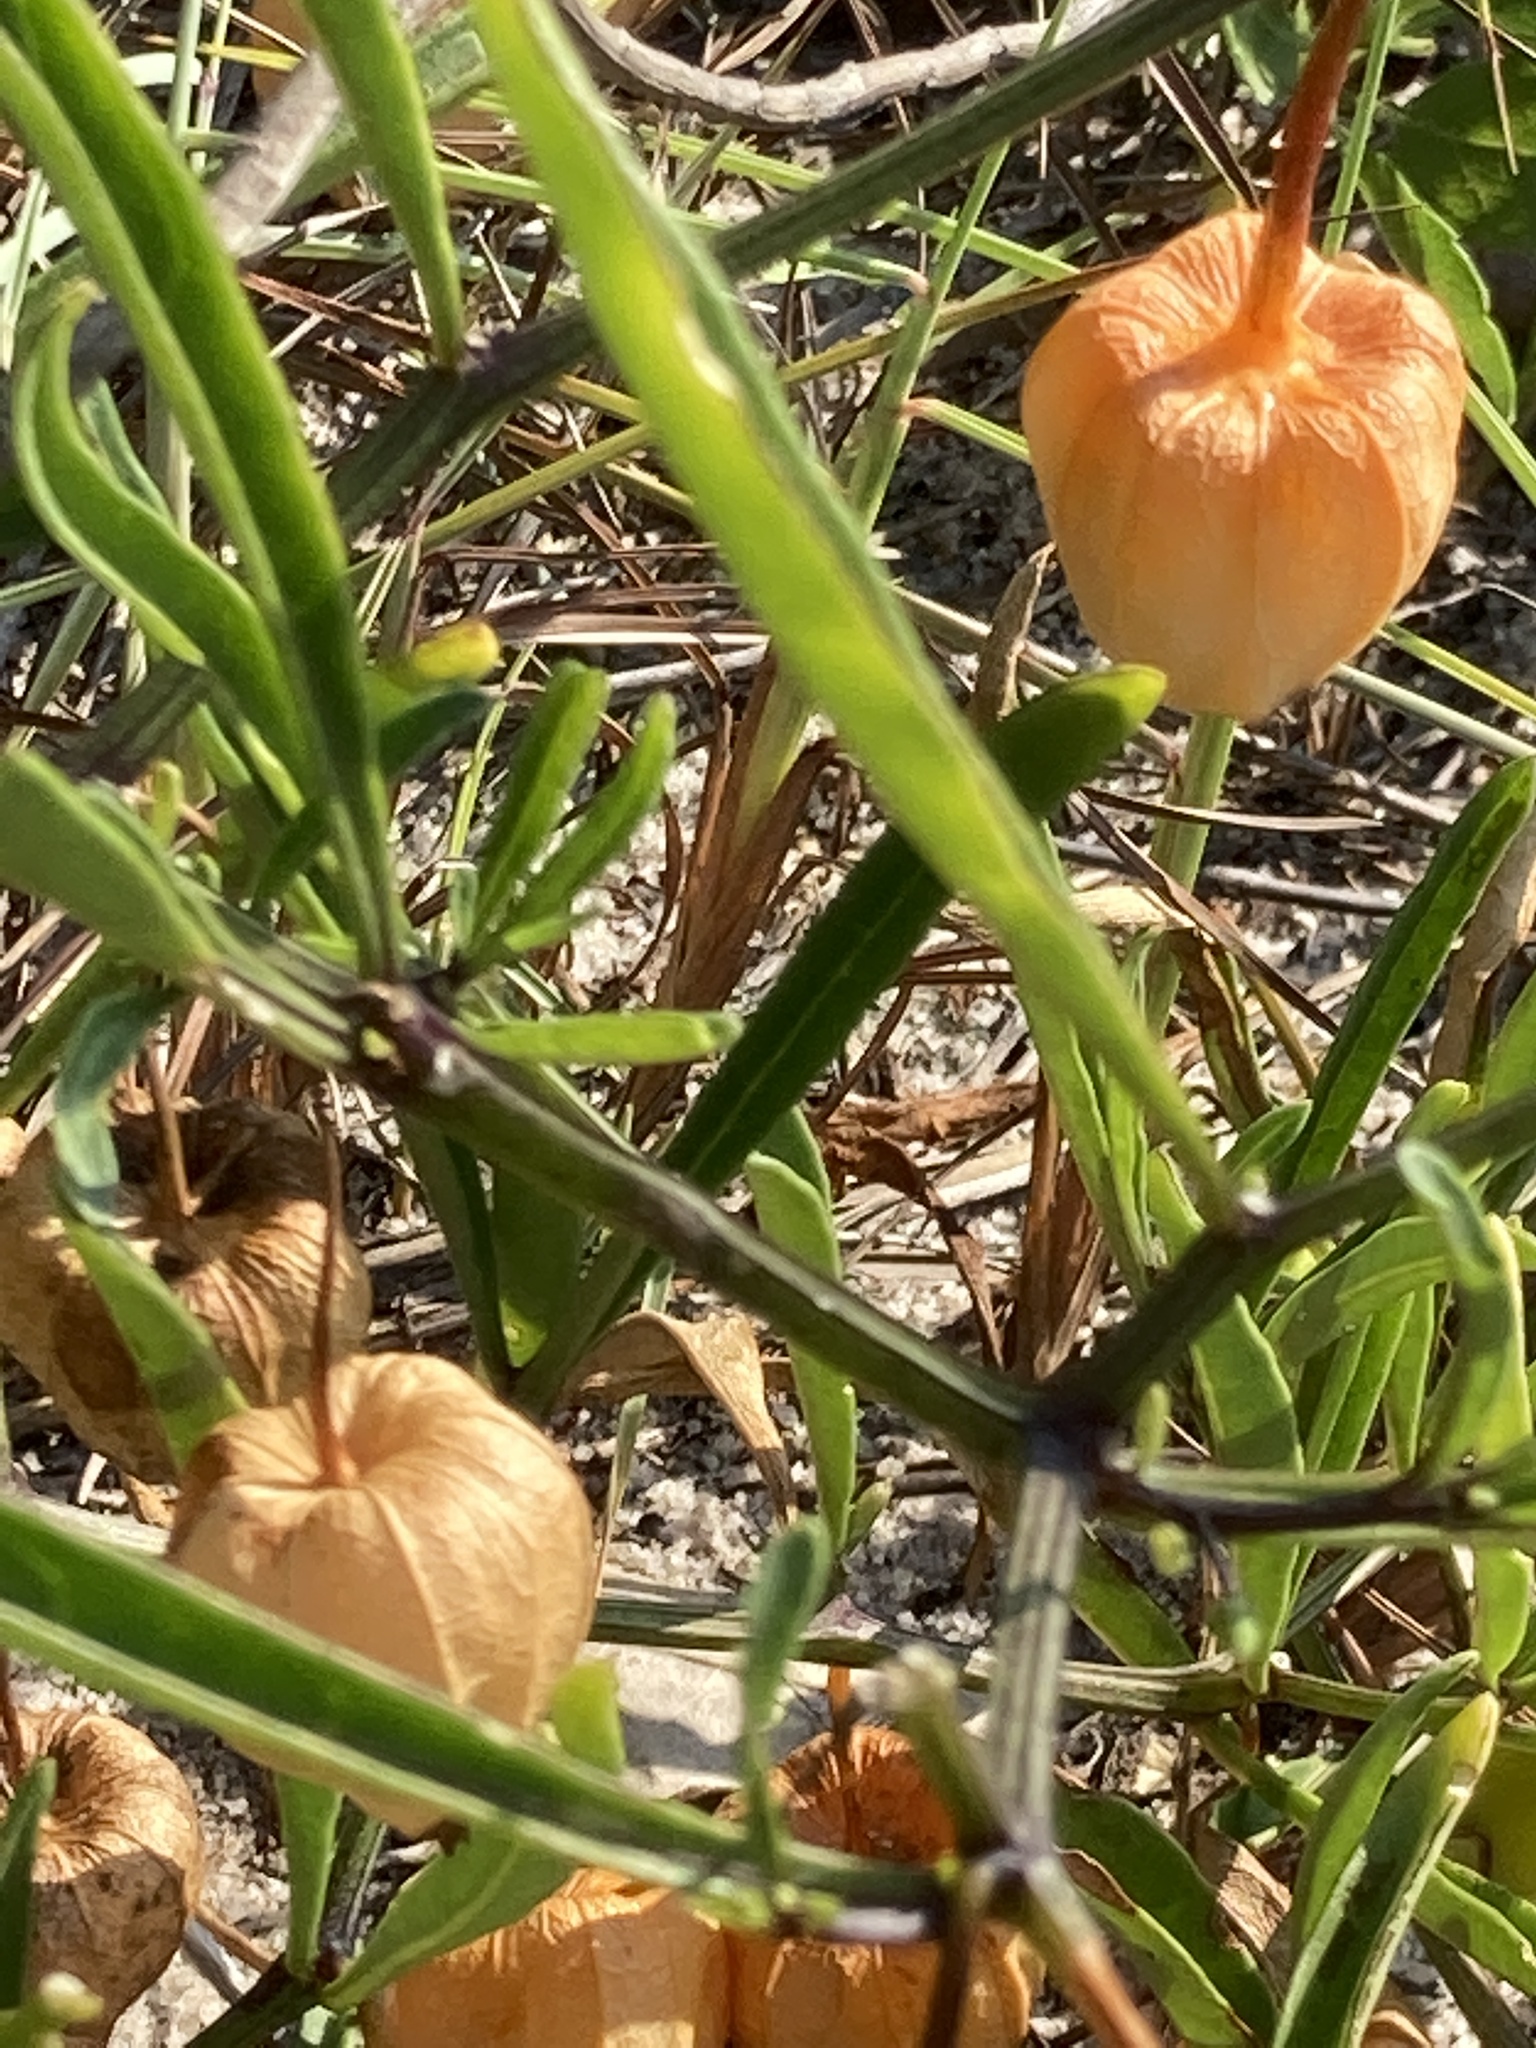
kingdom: Plantae
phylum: Tracheophyta
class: Magnoliopsida
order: Solanales
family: Solanaceae
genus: Physalis
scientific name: Physalis angustifolia
